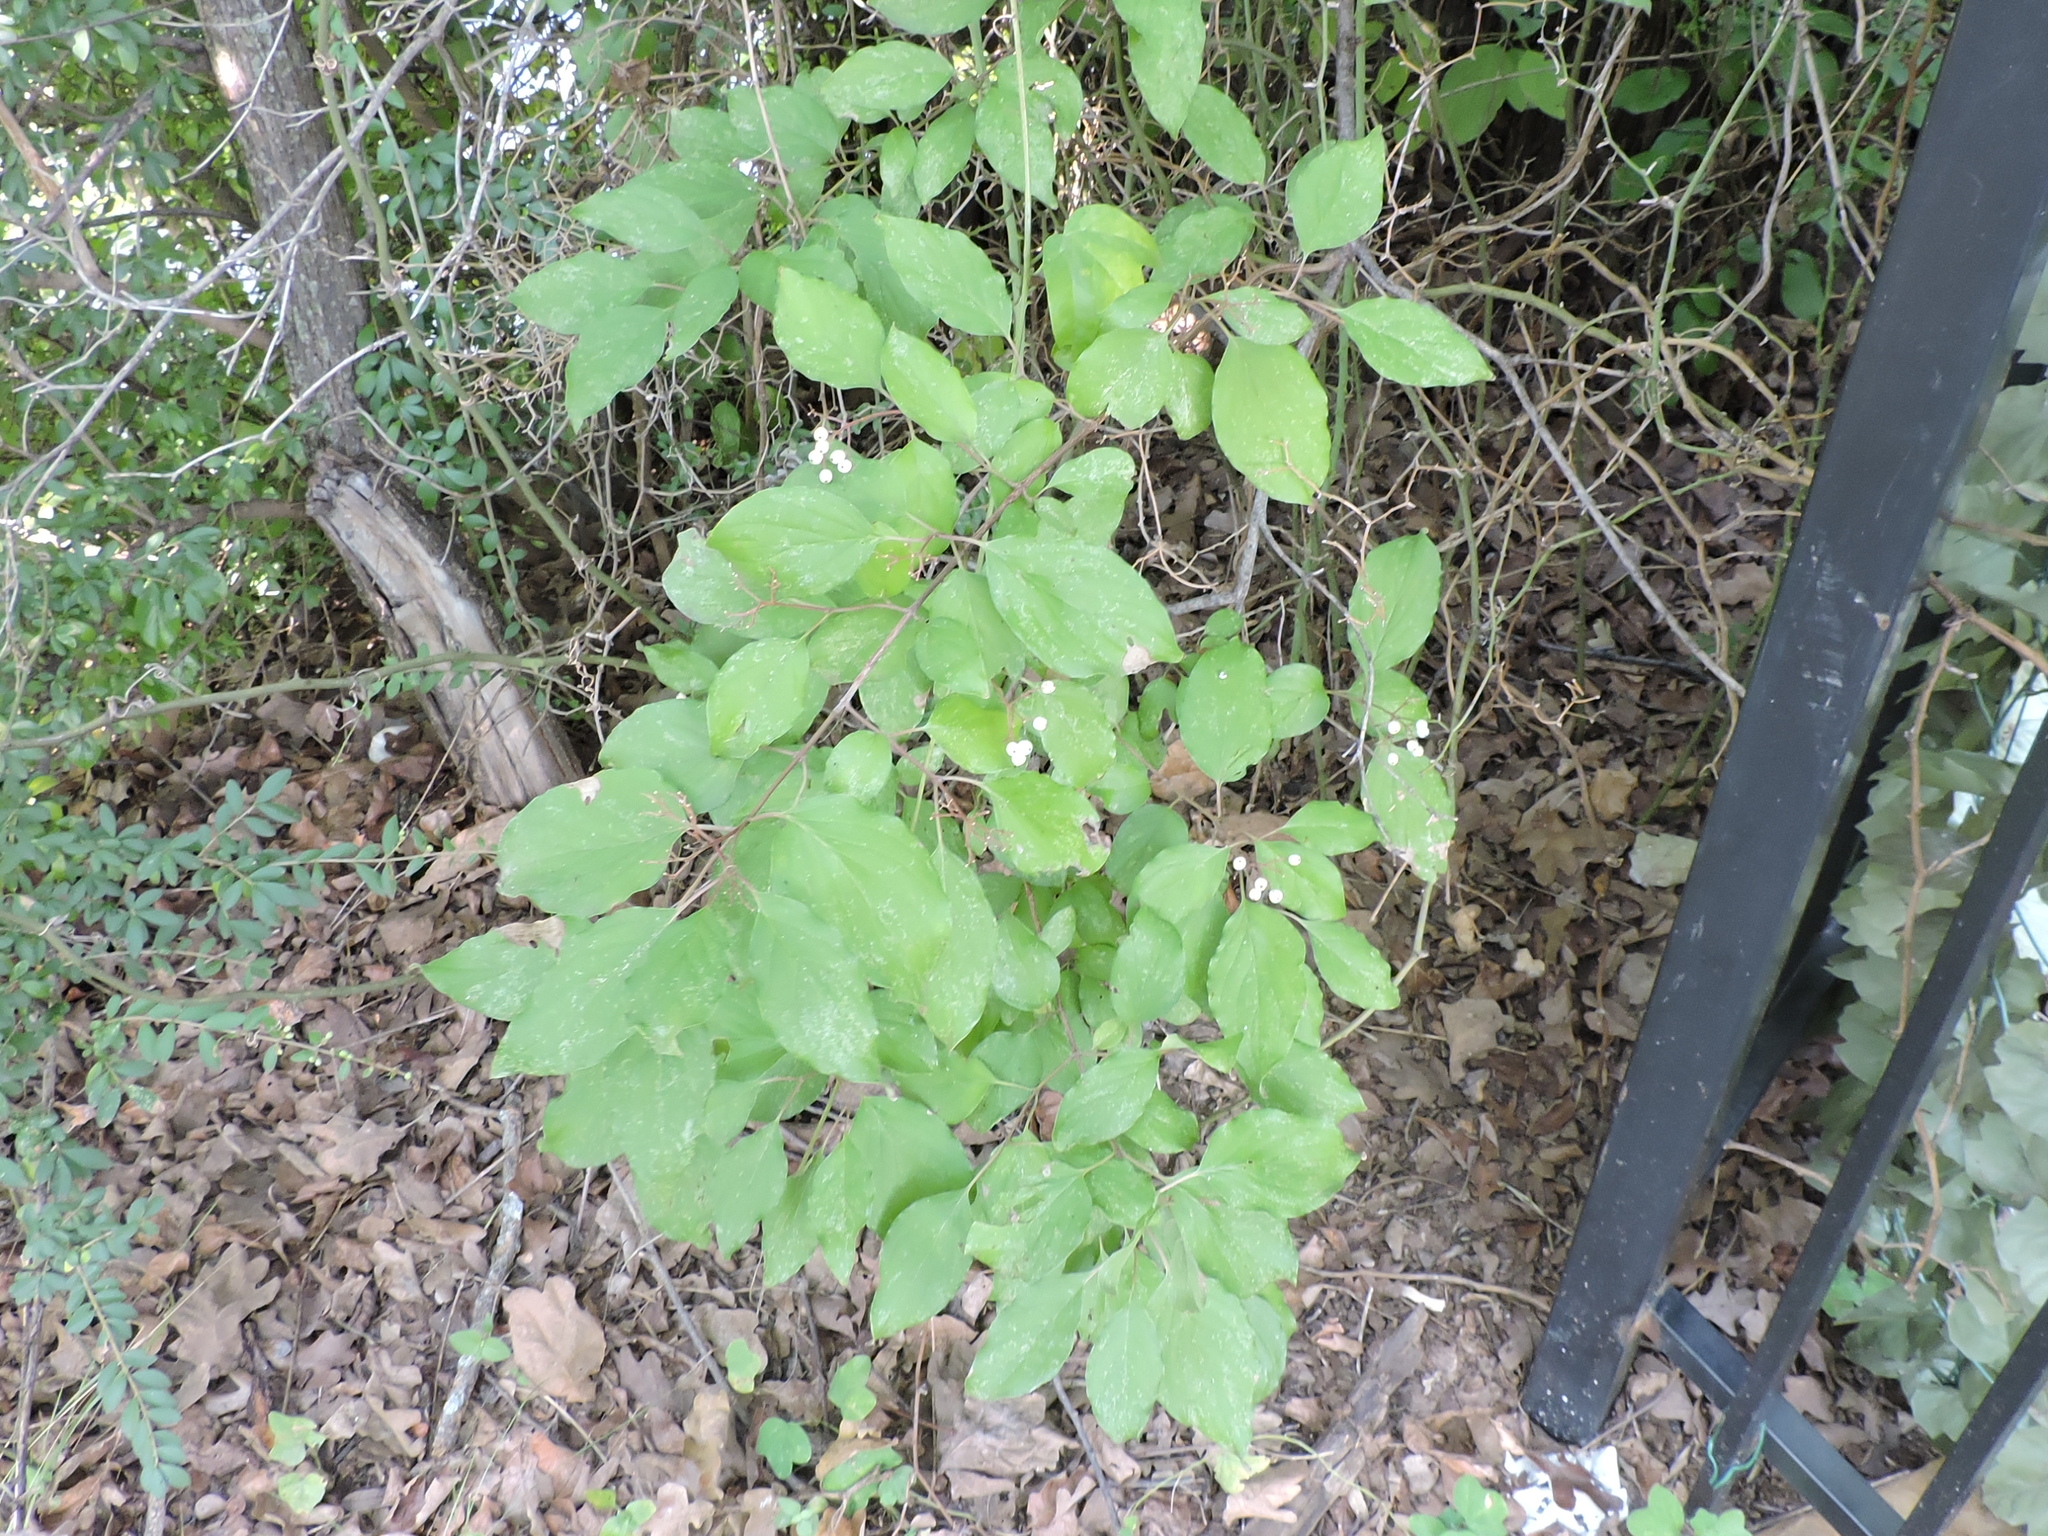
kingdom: Plantae
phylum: Tracheophyta
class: Magnoliopsida
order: Cornales
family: Cornaceae
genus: Cornus
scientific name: Cornus drummondii
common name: Rough-leaf dogwood
